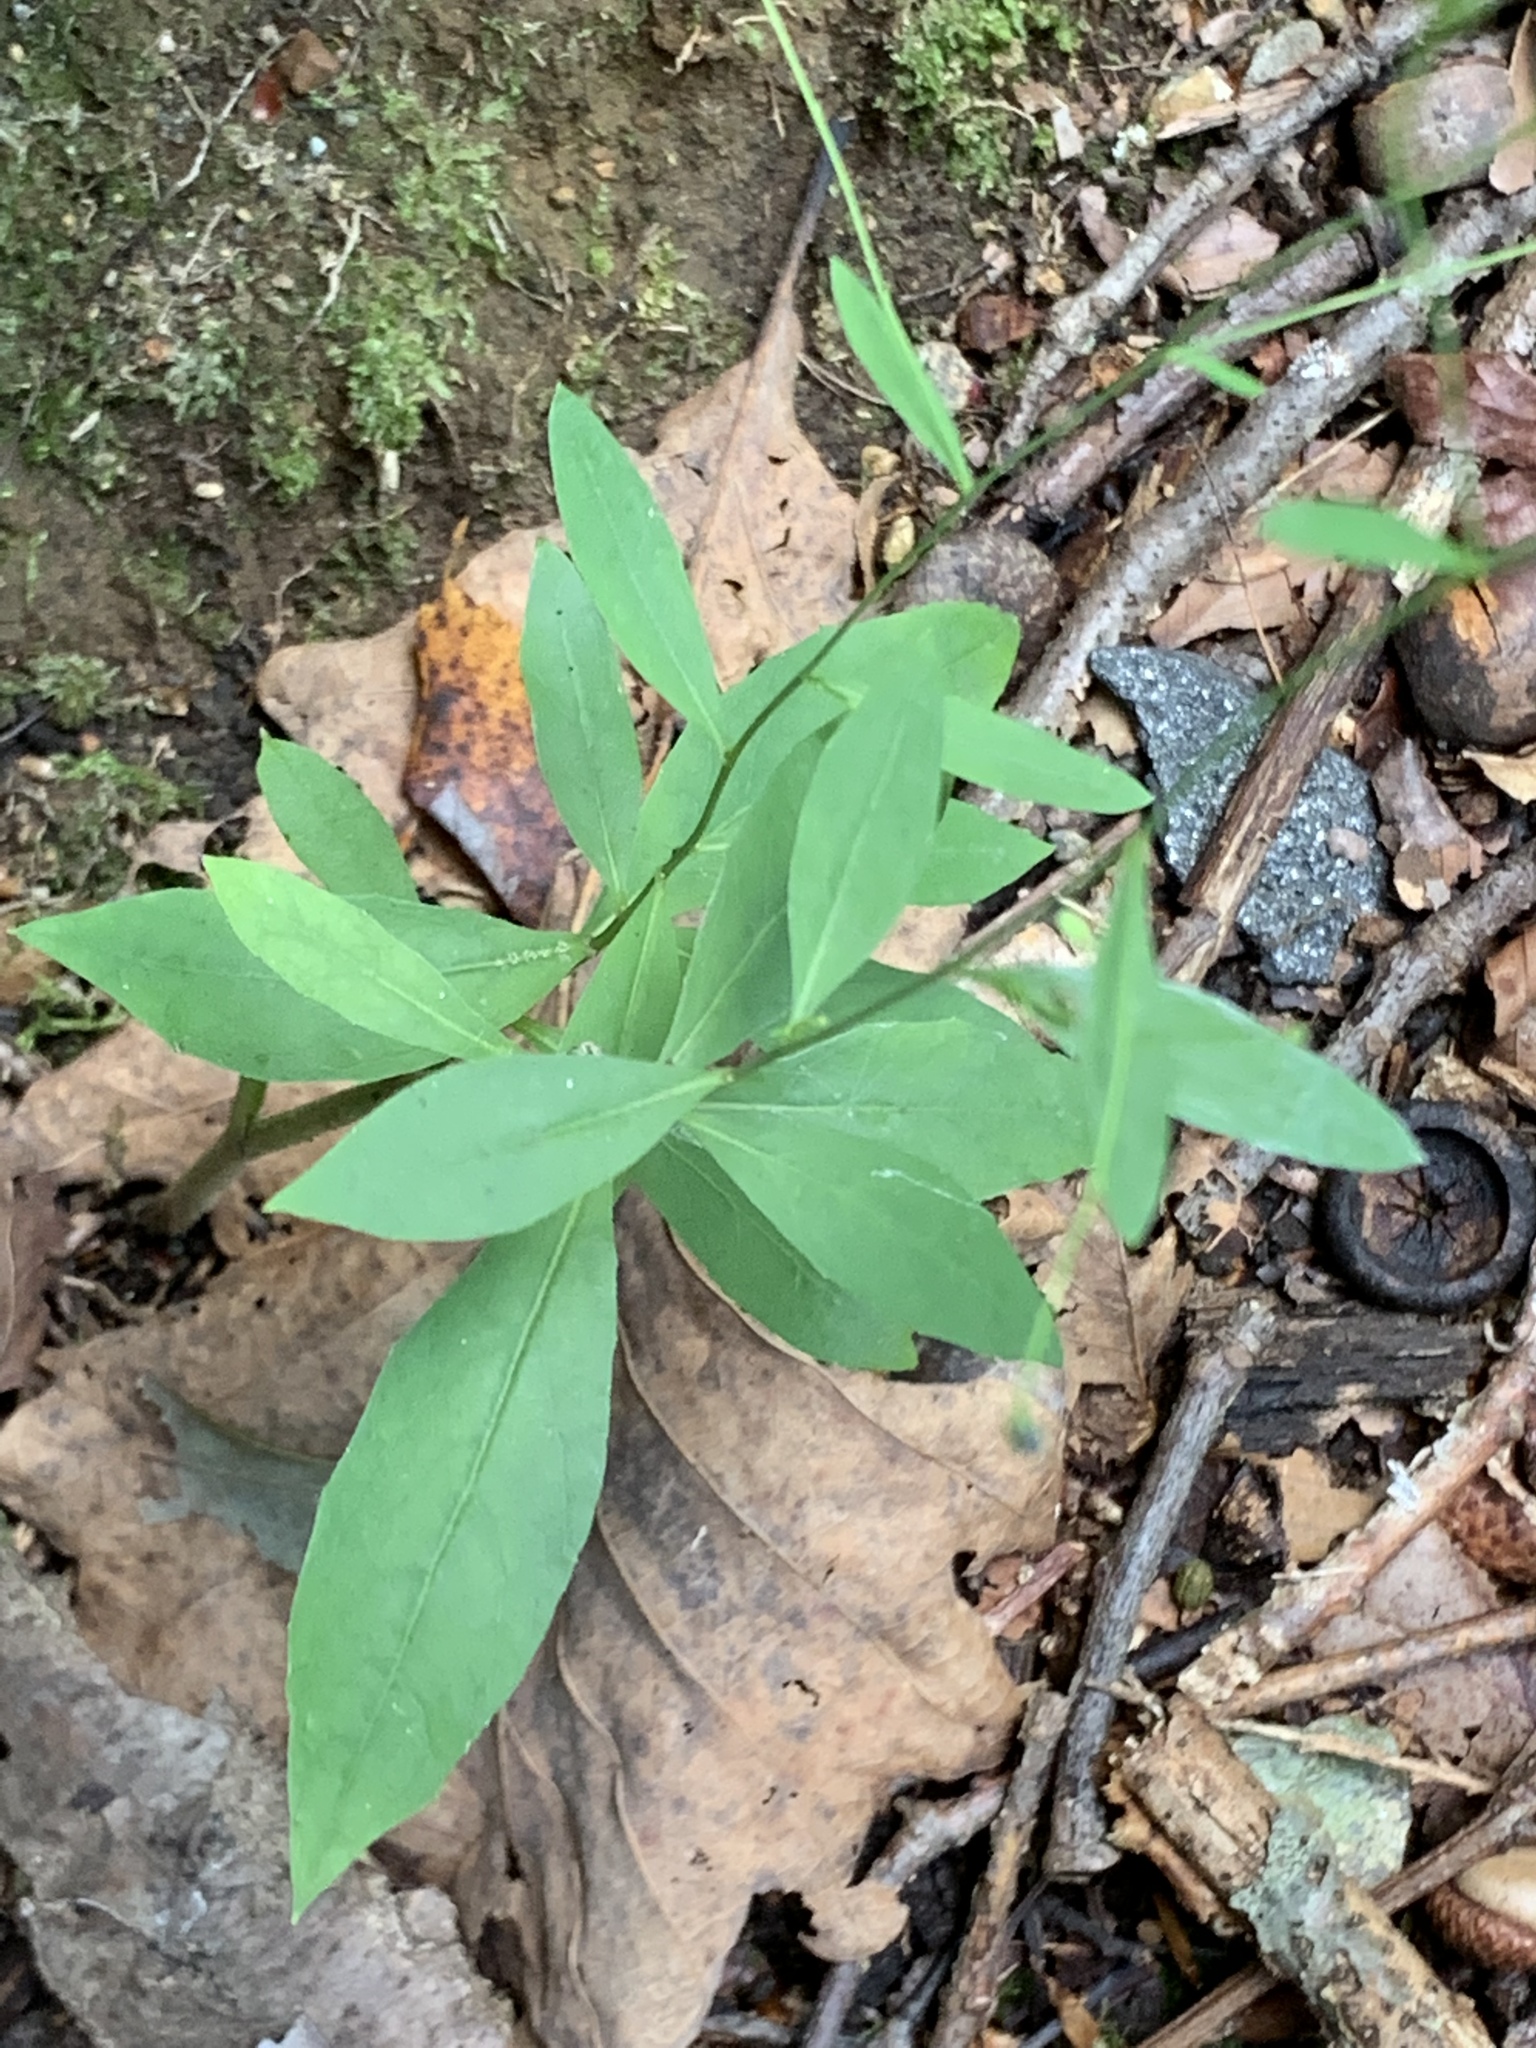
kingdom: Plantae
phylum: Tracheophyta
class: Magnoliopsida
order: Asterales
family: Asteraceae
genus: Hieracium
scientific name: Hieracium paniculatum
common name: Allegheny hawkweed
